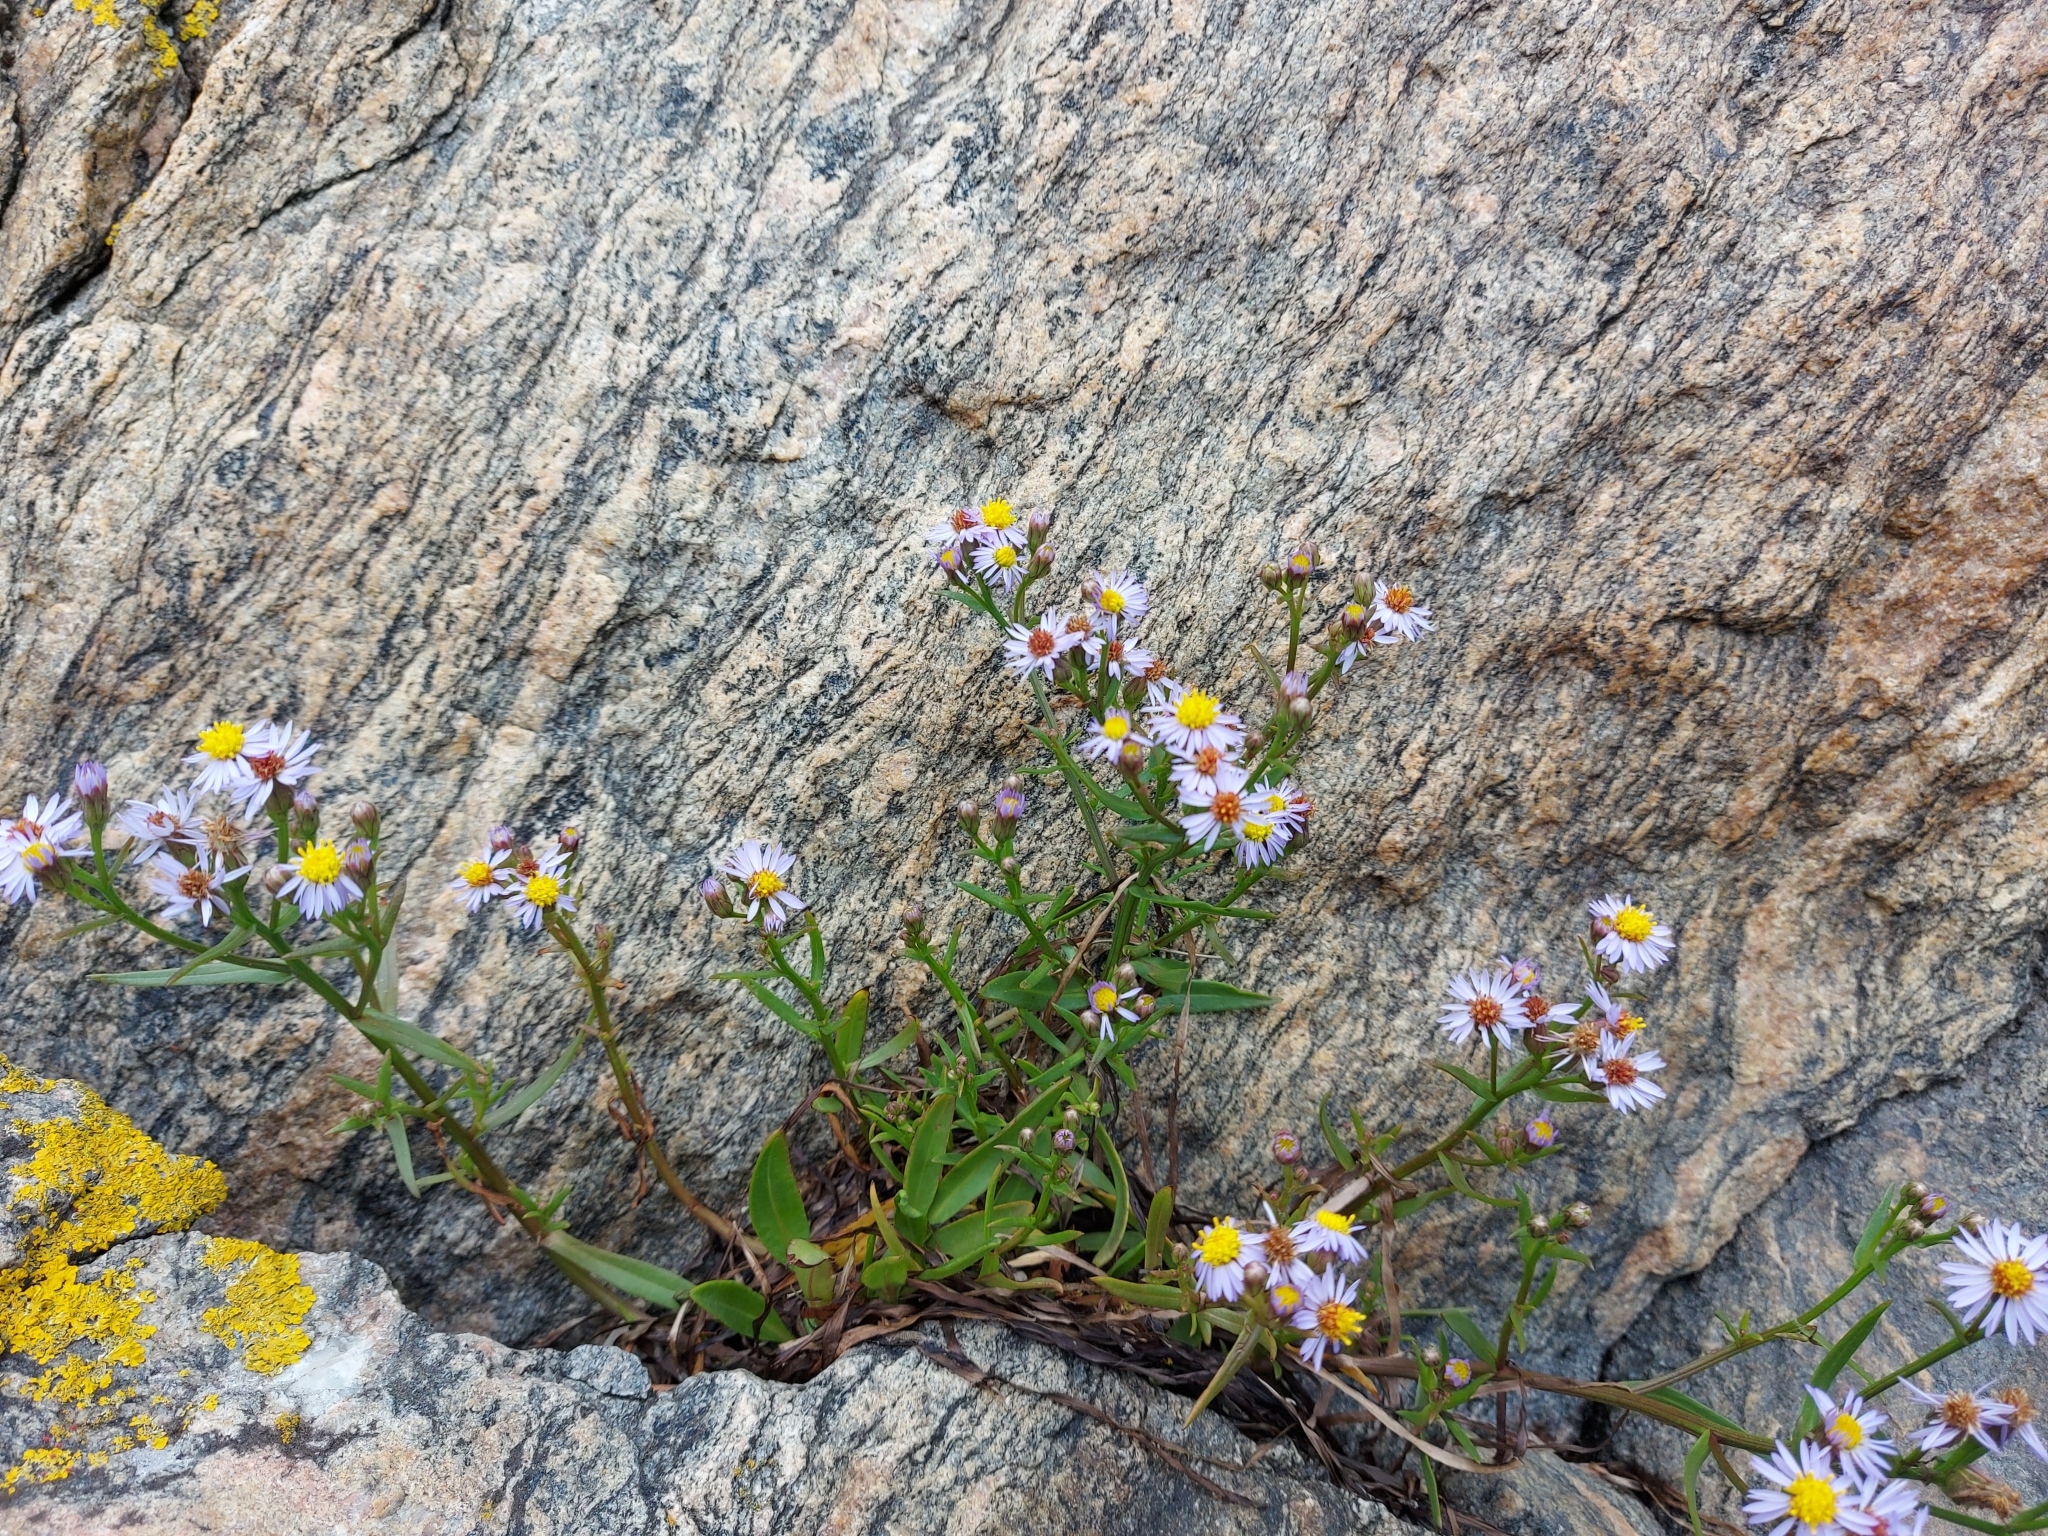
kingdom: Plantae
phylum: Tracheophyta
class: Magnoliopsida
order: Asterales
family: Asteraceae
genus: Tripolium
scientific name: Tripolium pannonicum
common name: Sea aster
